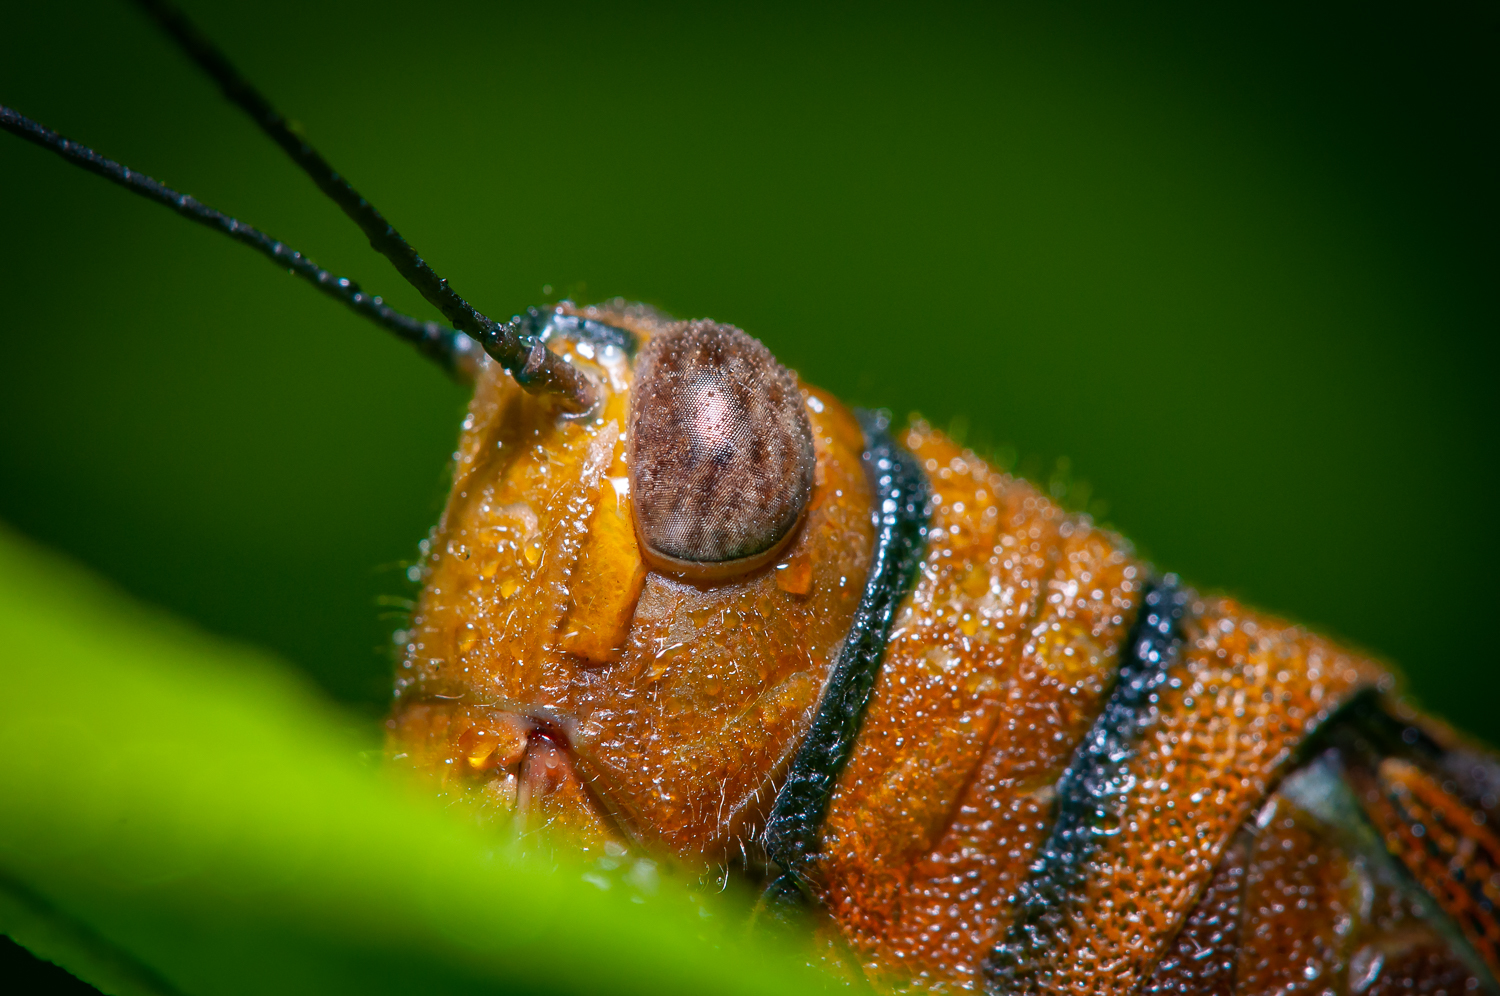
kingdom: Animalia
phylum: Arthropoda
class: Insecta
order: Orthoptera
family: Acrididae
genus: Adelotettix
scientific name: Adelotettix gigas
